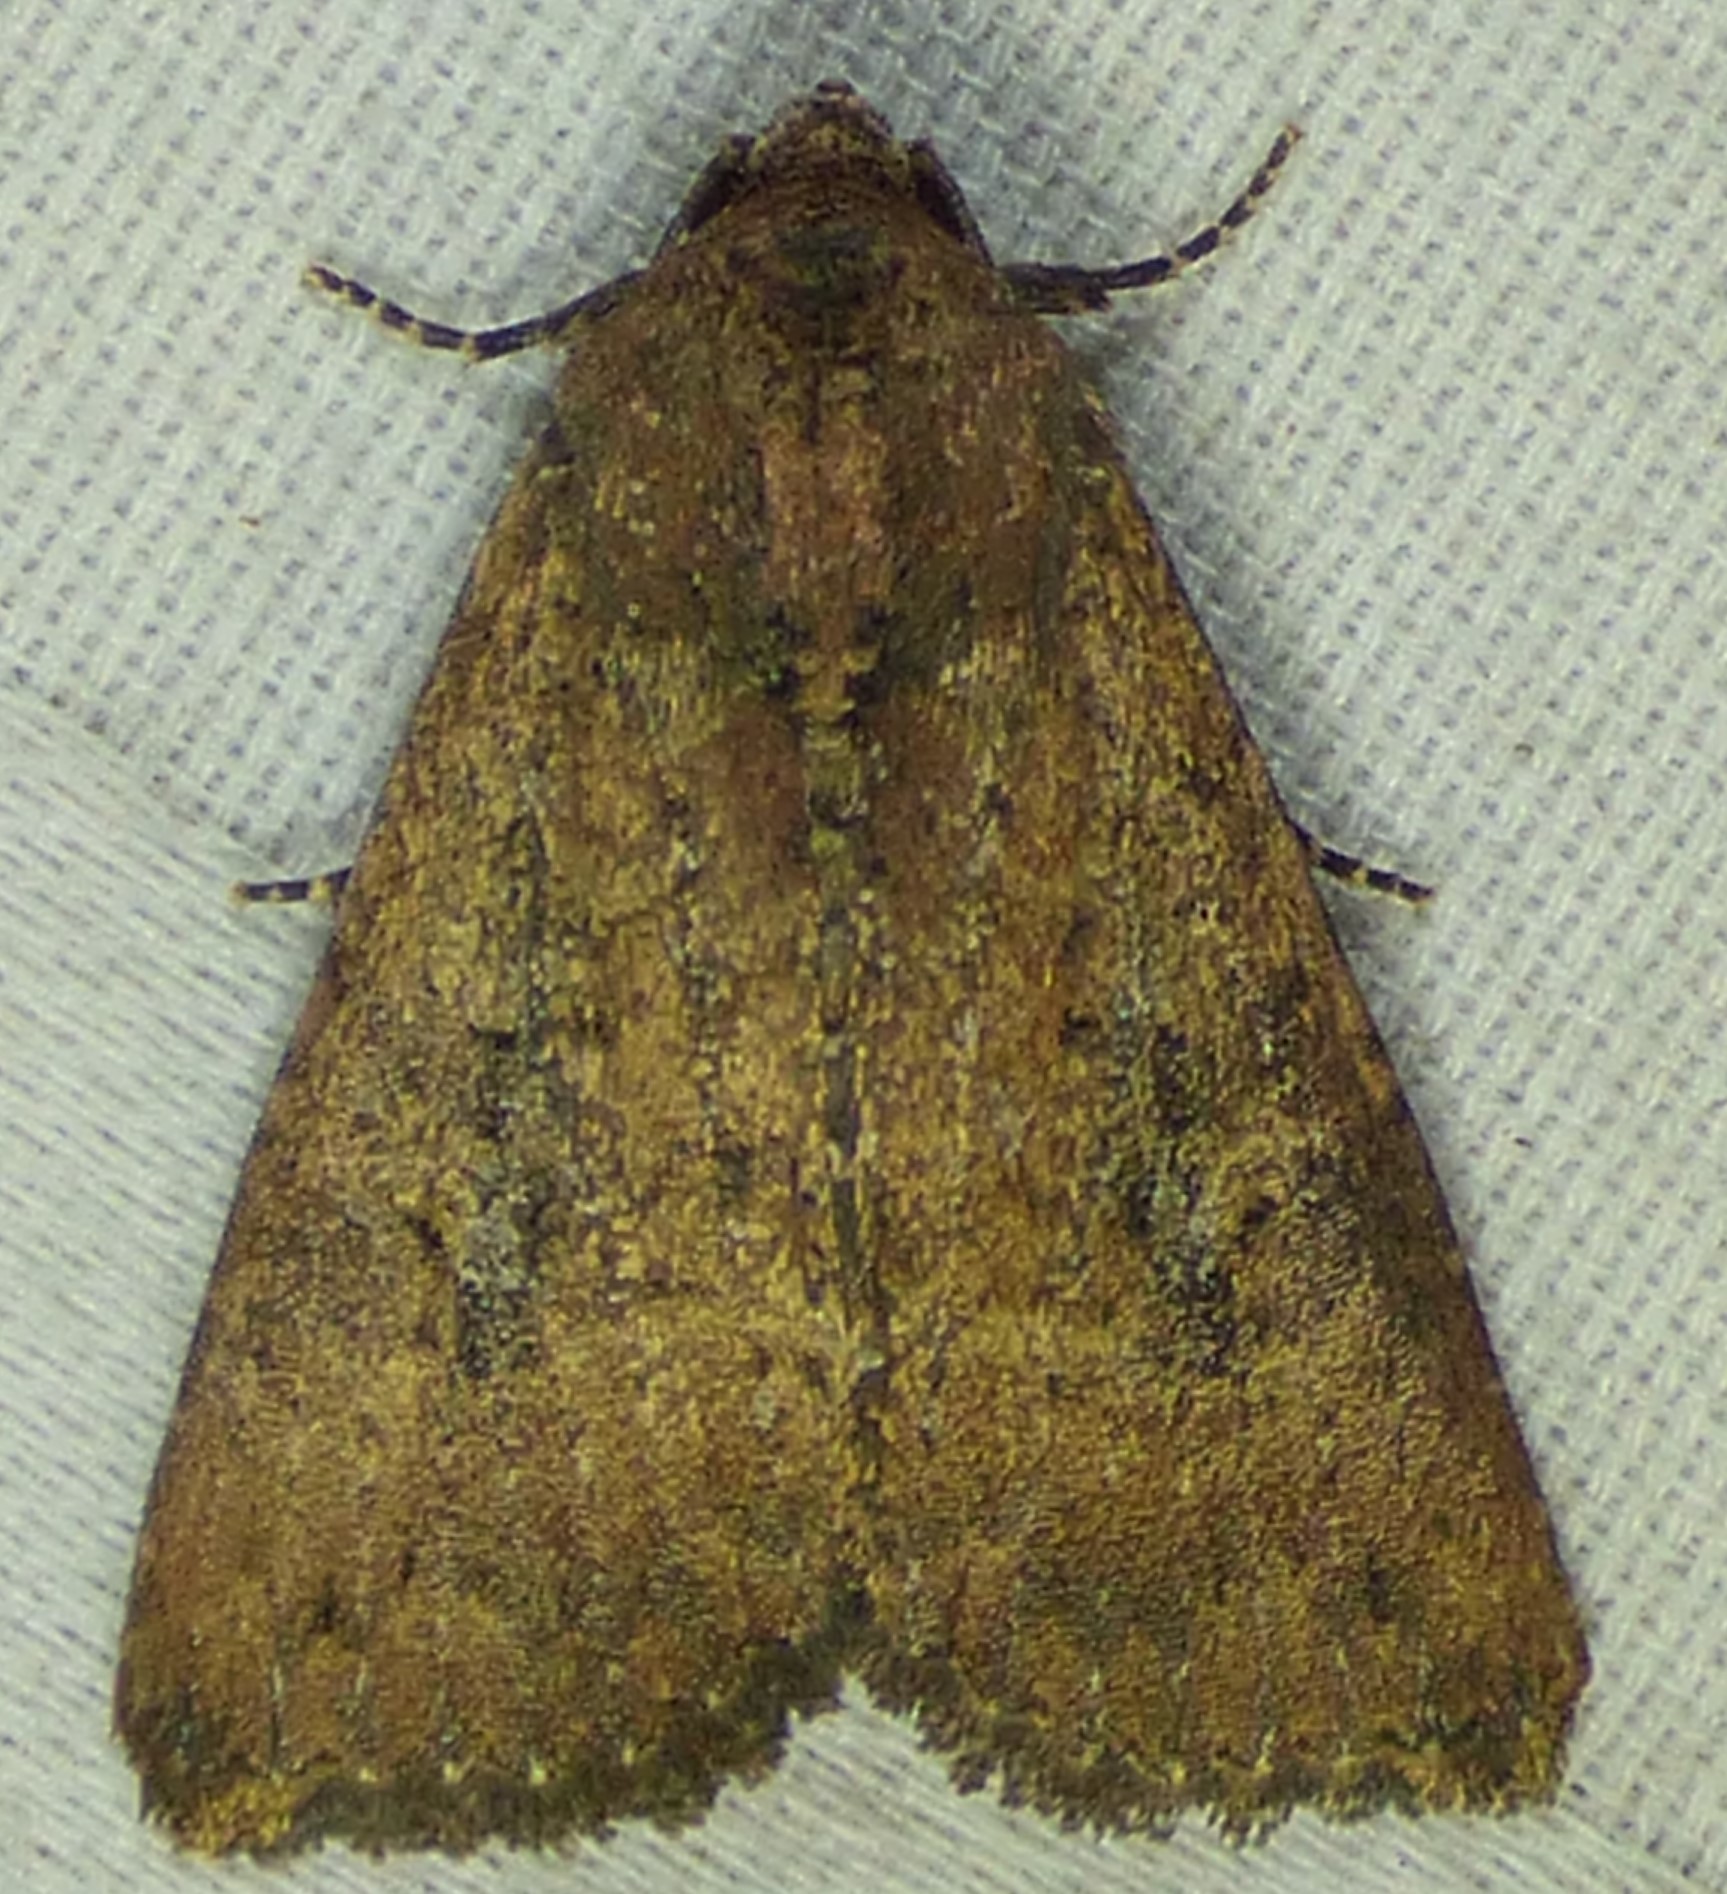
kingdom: Animalia
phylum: Arthropoda
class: Insecta
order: Lepidoptera
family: Noctuidae
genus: Condica
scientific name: Condica sutor
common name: Cobbler moth
